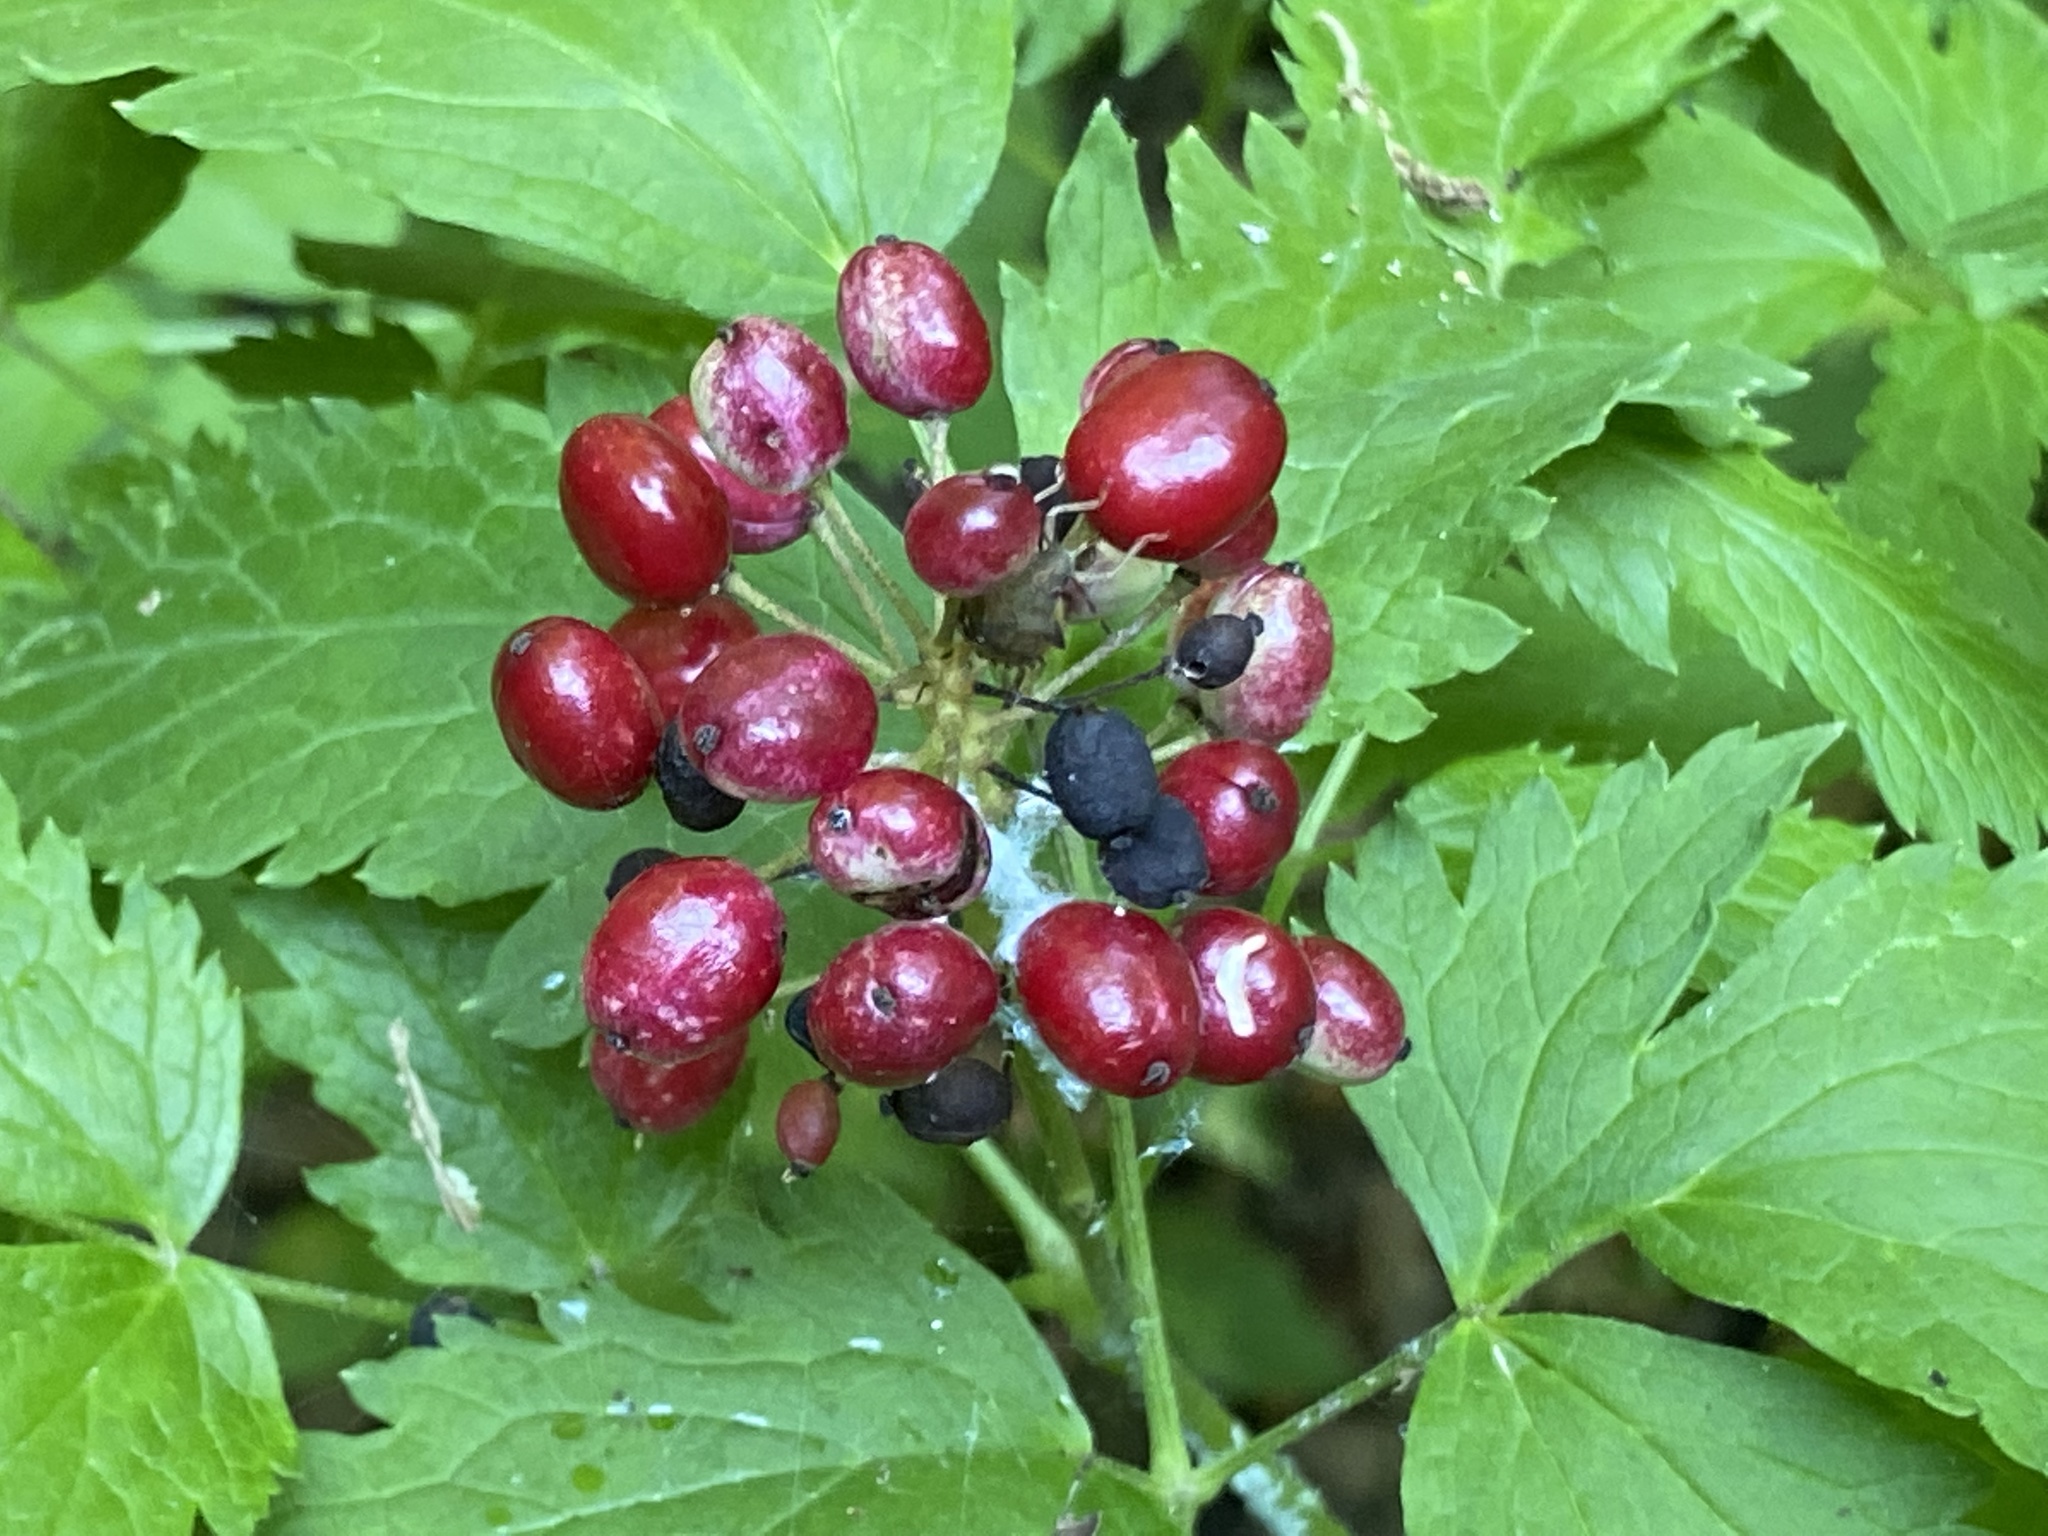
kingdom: Plantae
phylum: Tracheophyta
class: Magnoliopsida
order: Ranunculales
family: Ranunculaceae
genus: Actaea
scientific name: Actaea rubra
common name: Red baneberry
